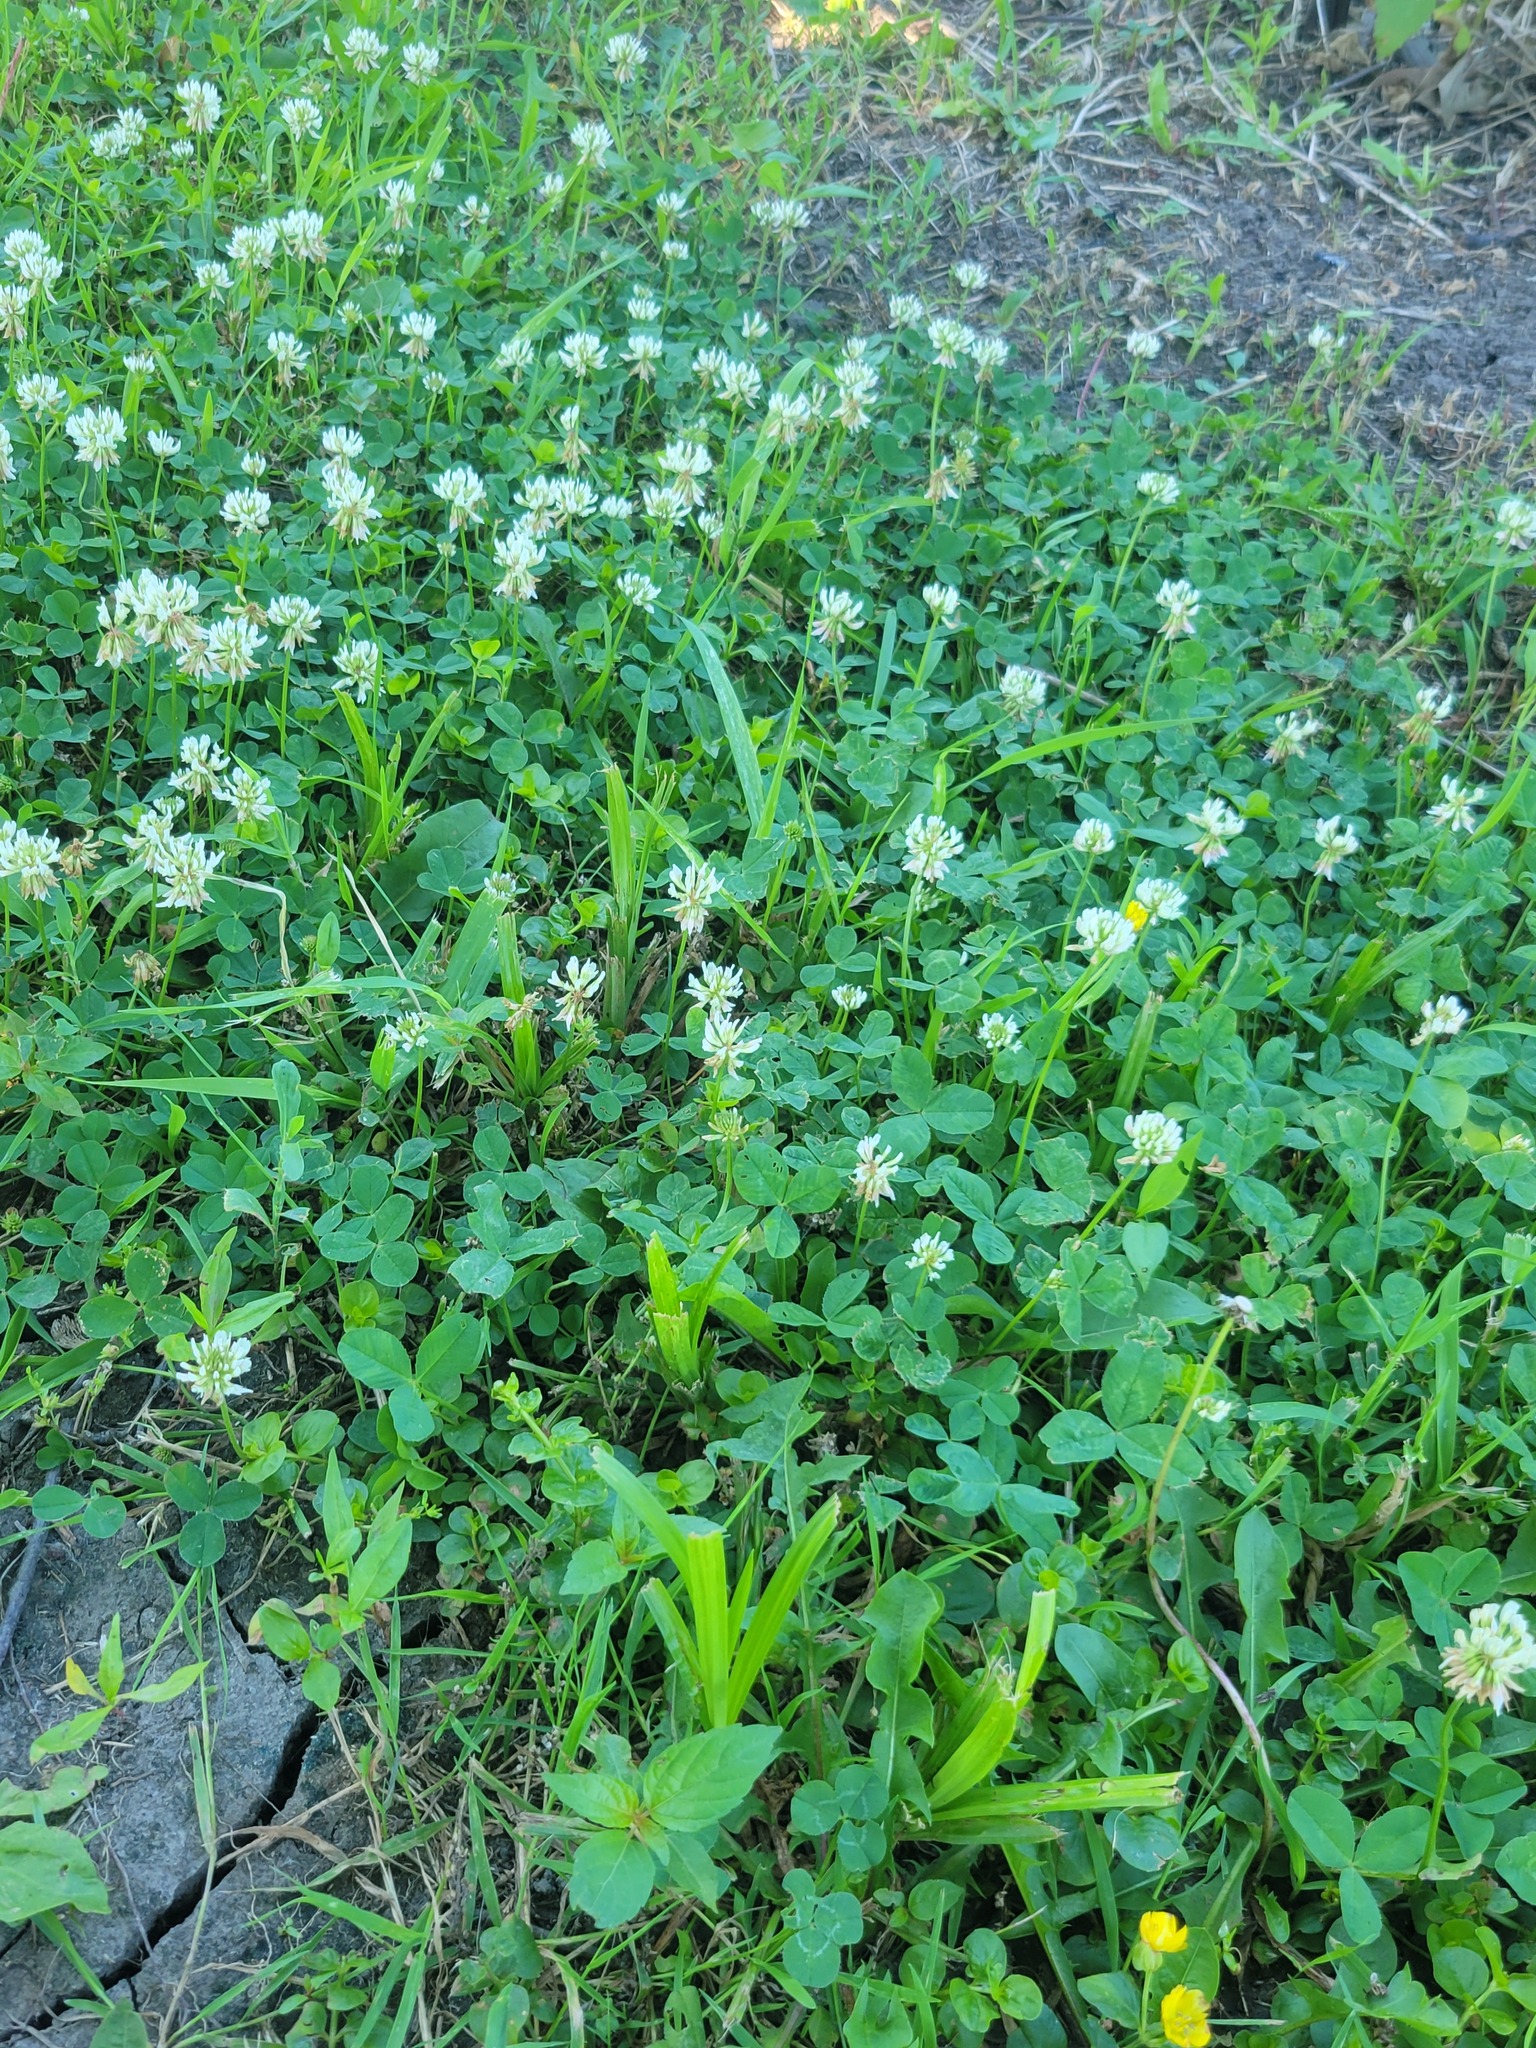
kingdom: Plantae
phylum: Tracheophyta
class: Magnoliopsida
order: Fabales
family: Fabaceae
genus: Trifolium
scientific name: Trifolium repens
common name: White clover
